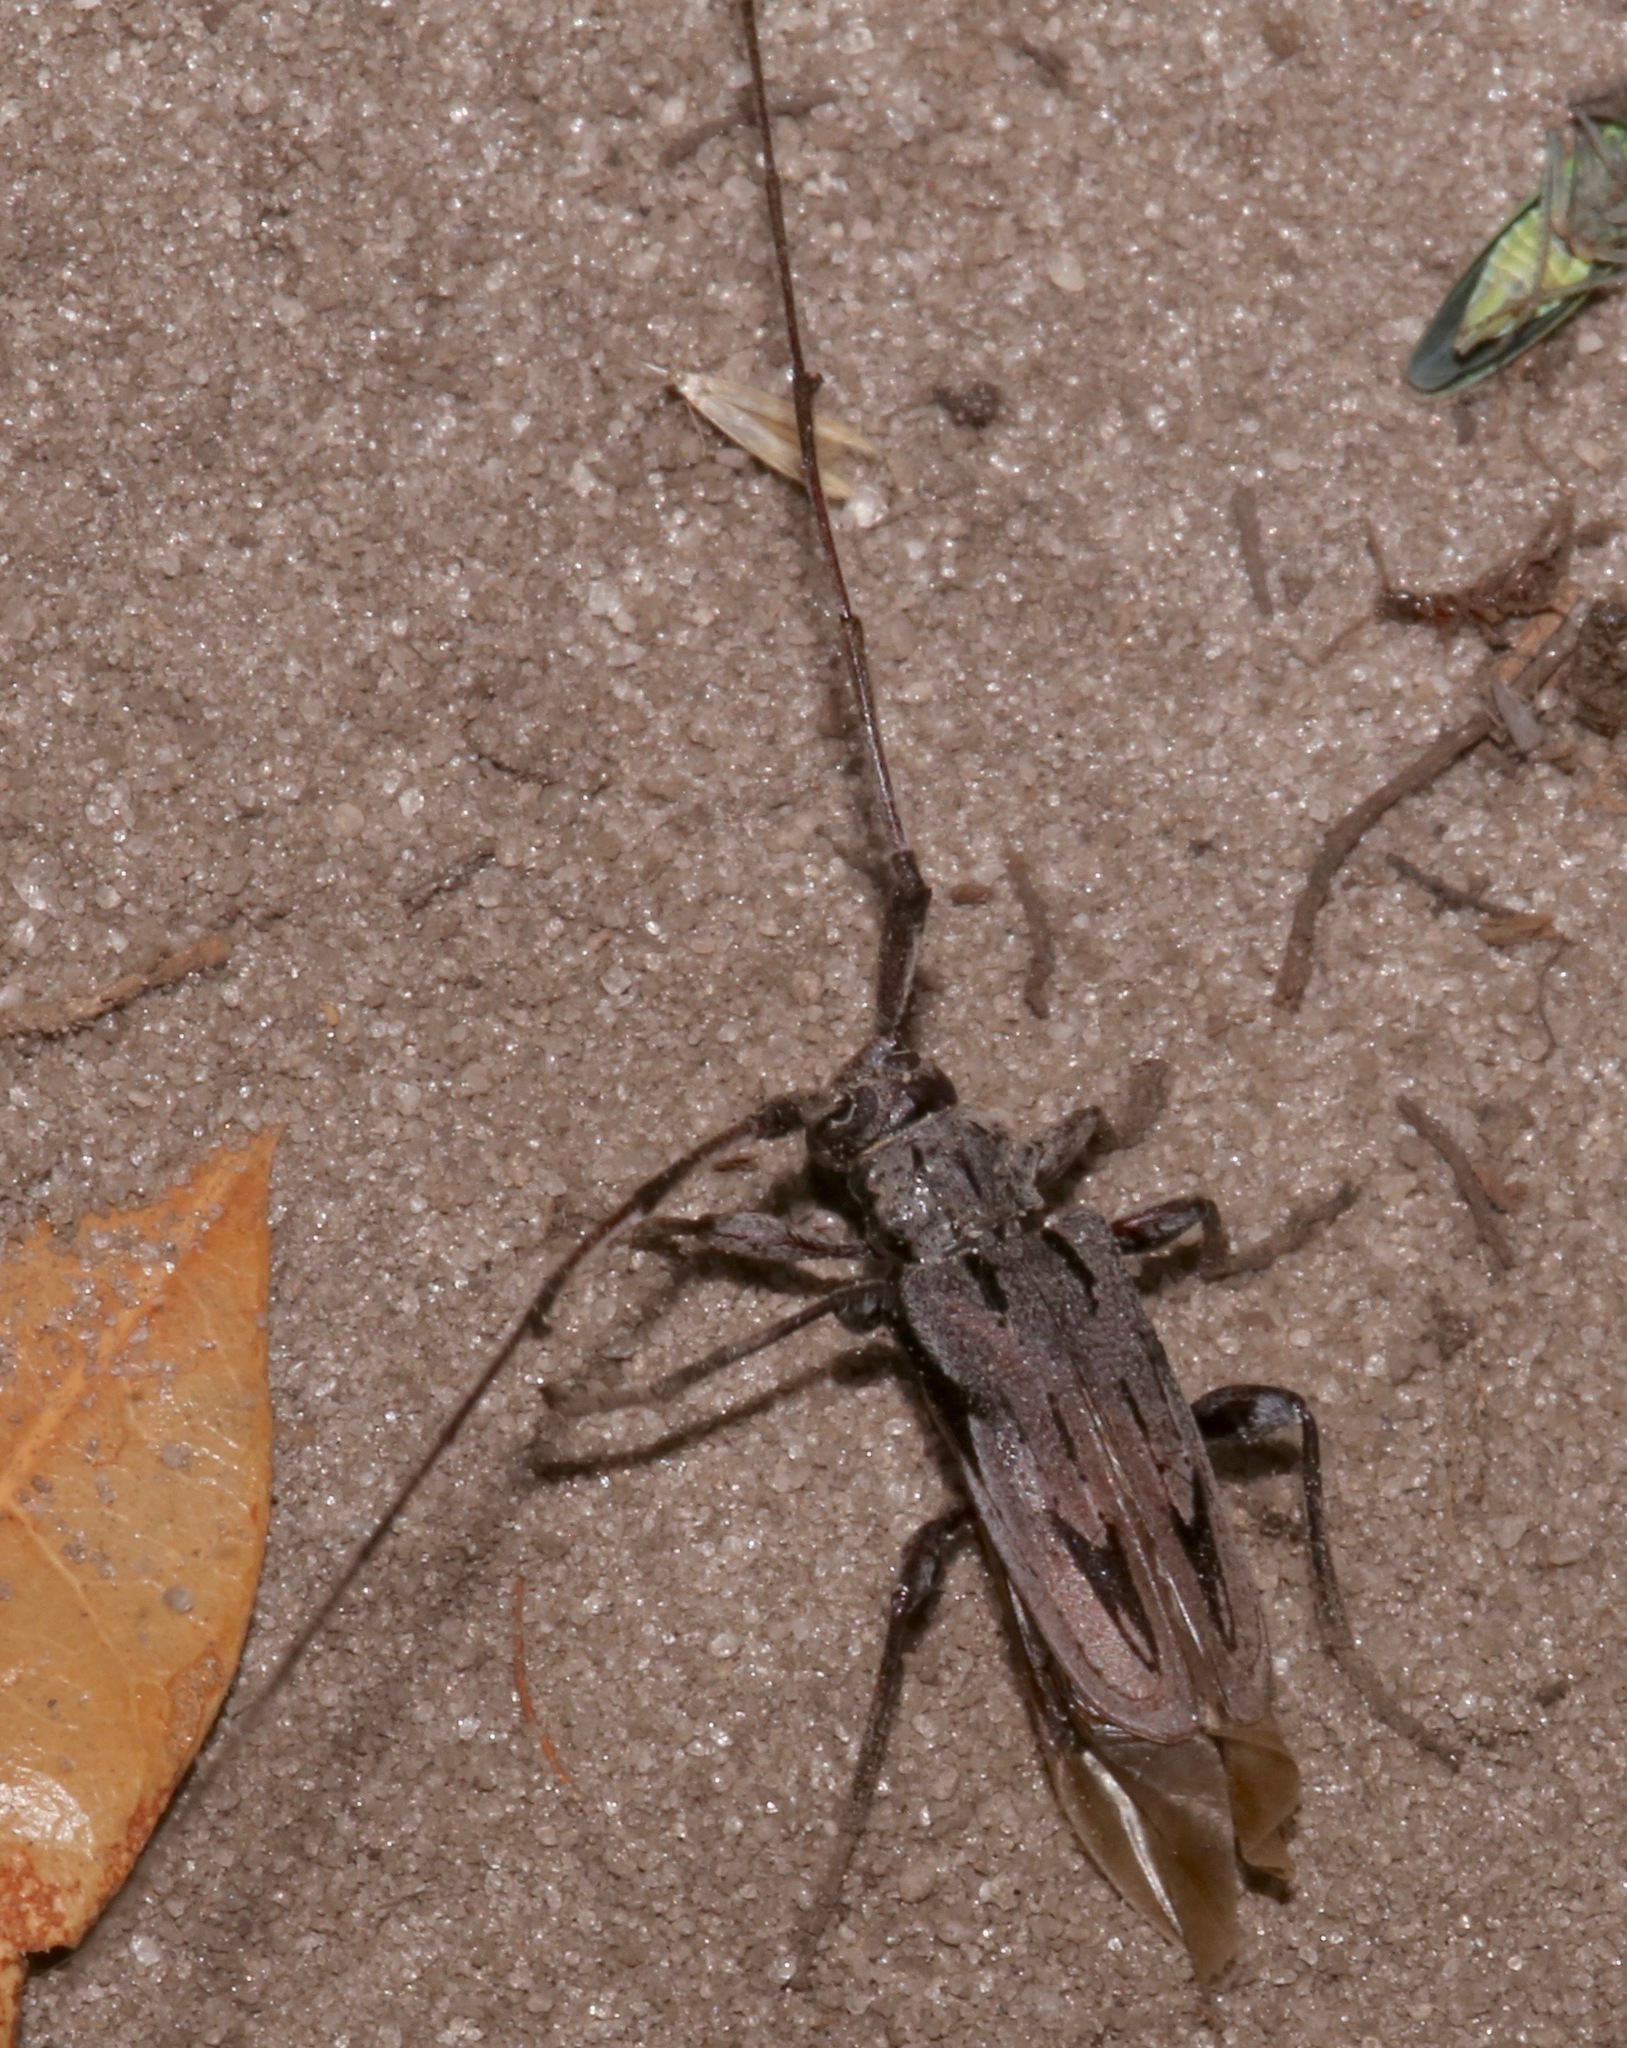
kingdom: Animalia
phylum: Arthropoda
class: Insecta
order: Coleoptera
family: Cerambycidae
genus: Acanthocinus
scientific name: Acanthocinus nodosus
